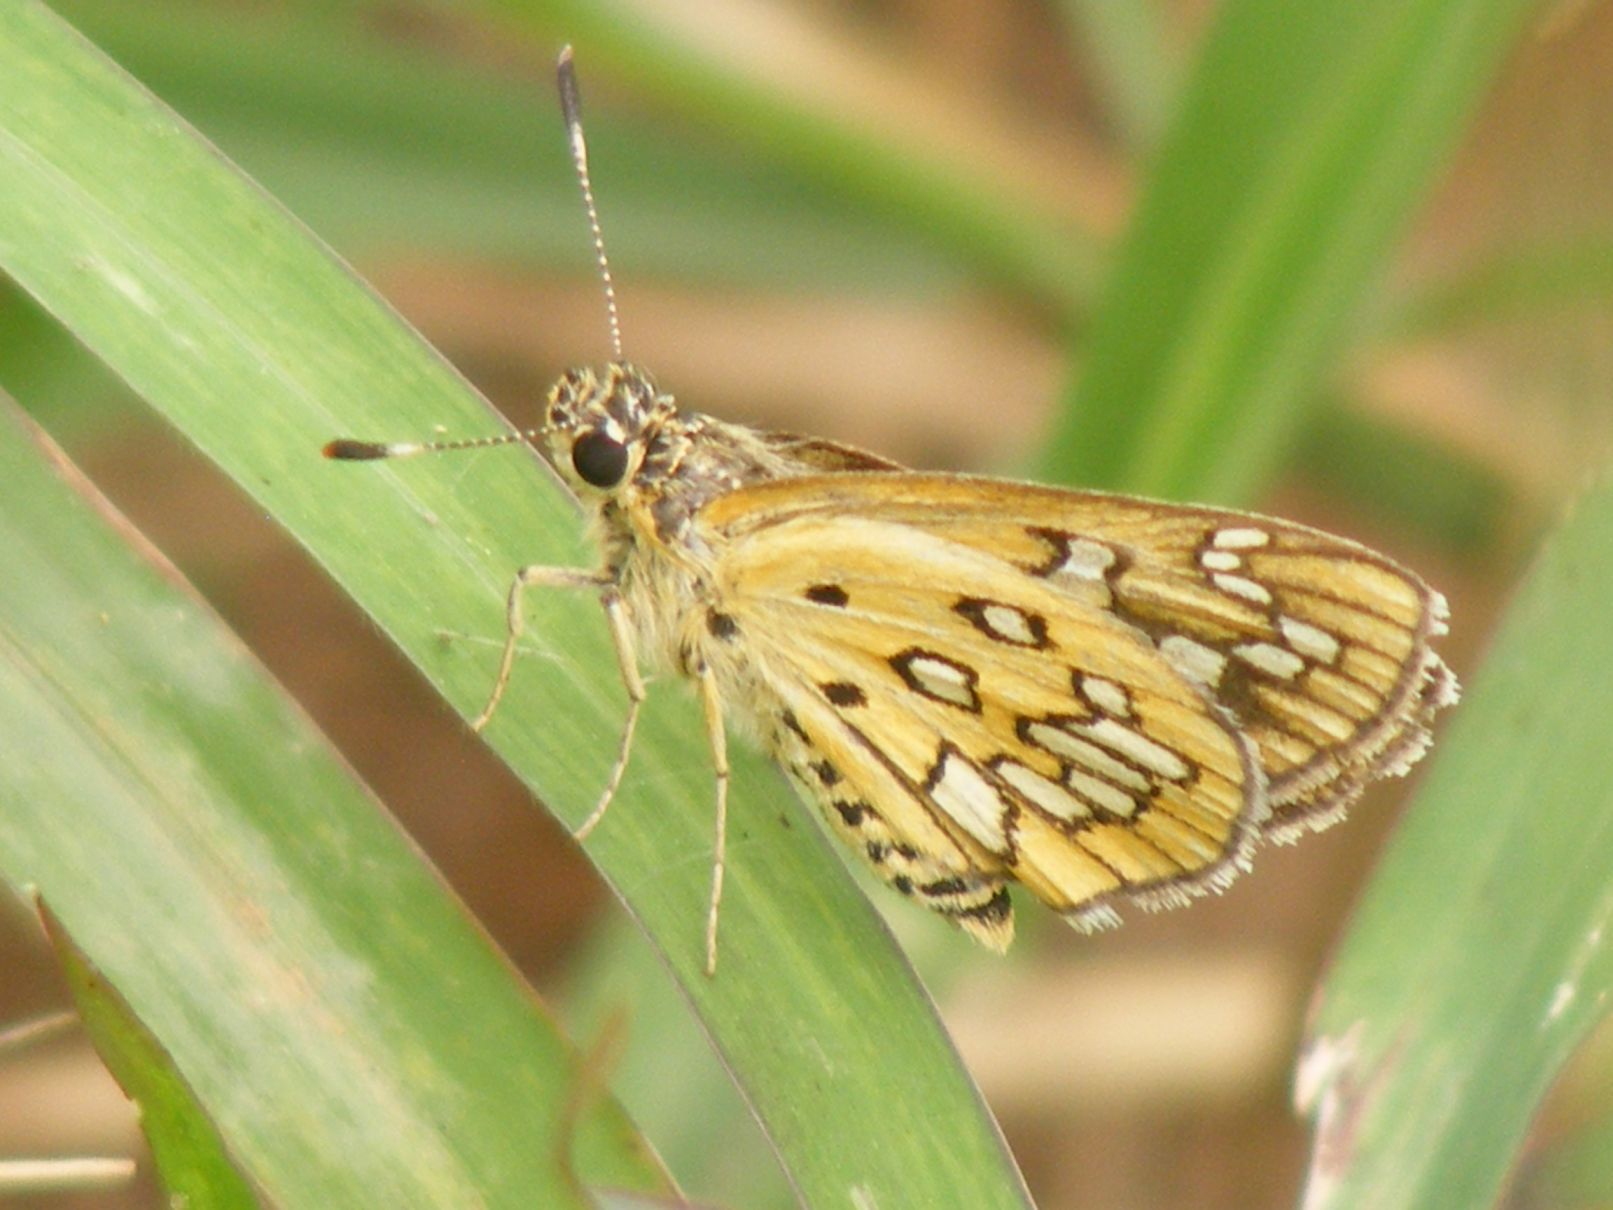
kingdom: Animalia
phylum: Arthropoda
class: Insecta
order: Lepidoptera
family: Hesperiidae
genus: Dotta
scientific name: Dotta
